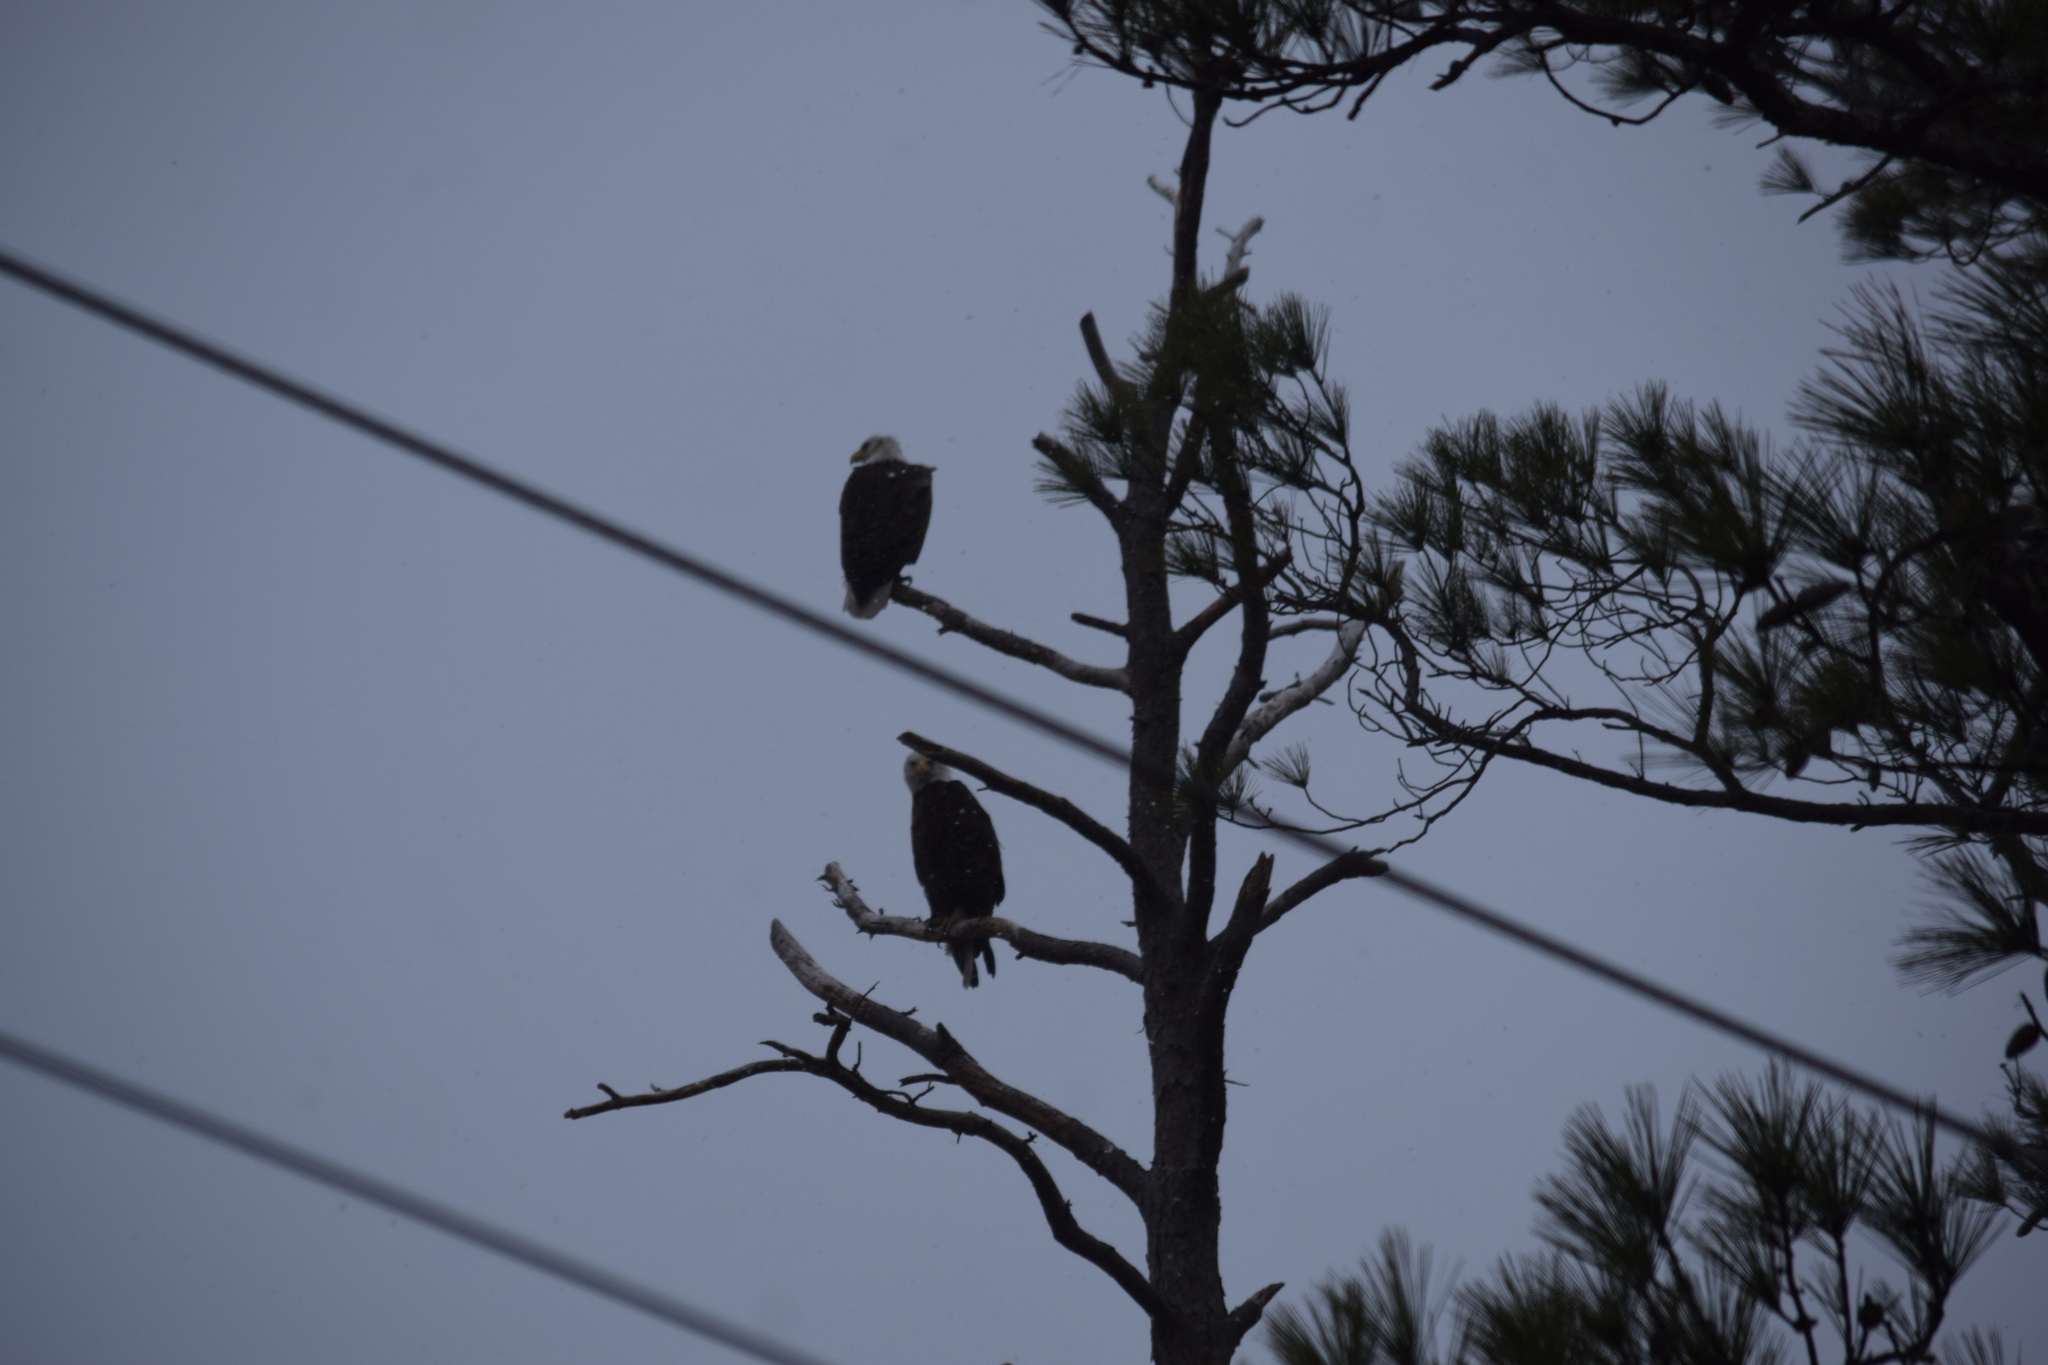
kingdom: Animalia
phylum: Chordata
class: Aves
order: Accipitriformes
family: Accipitridae
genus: Haliaeetus
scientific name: Haliaeetus leucocephalus
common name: Bald eagle
